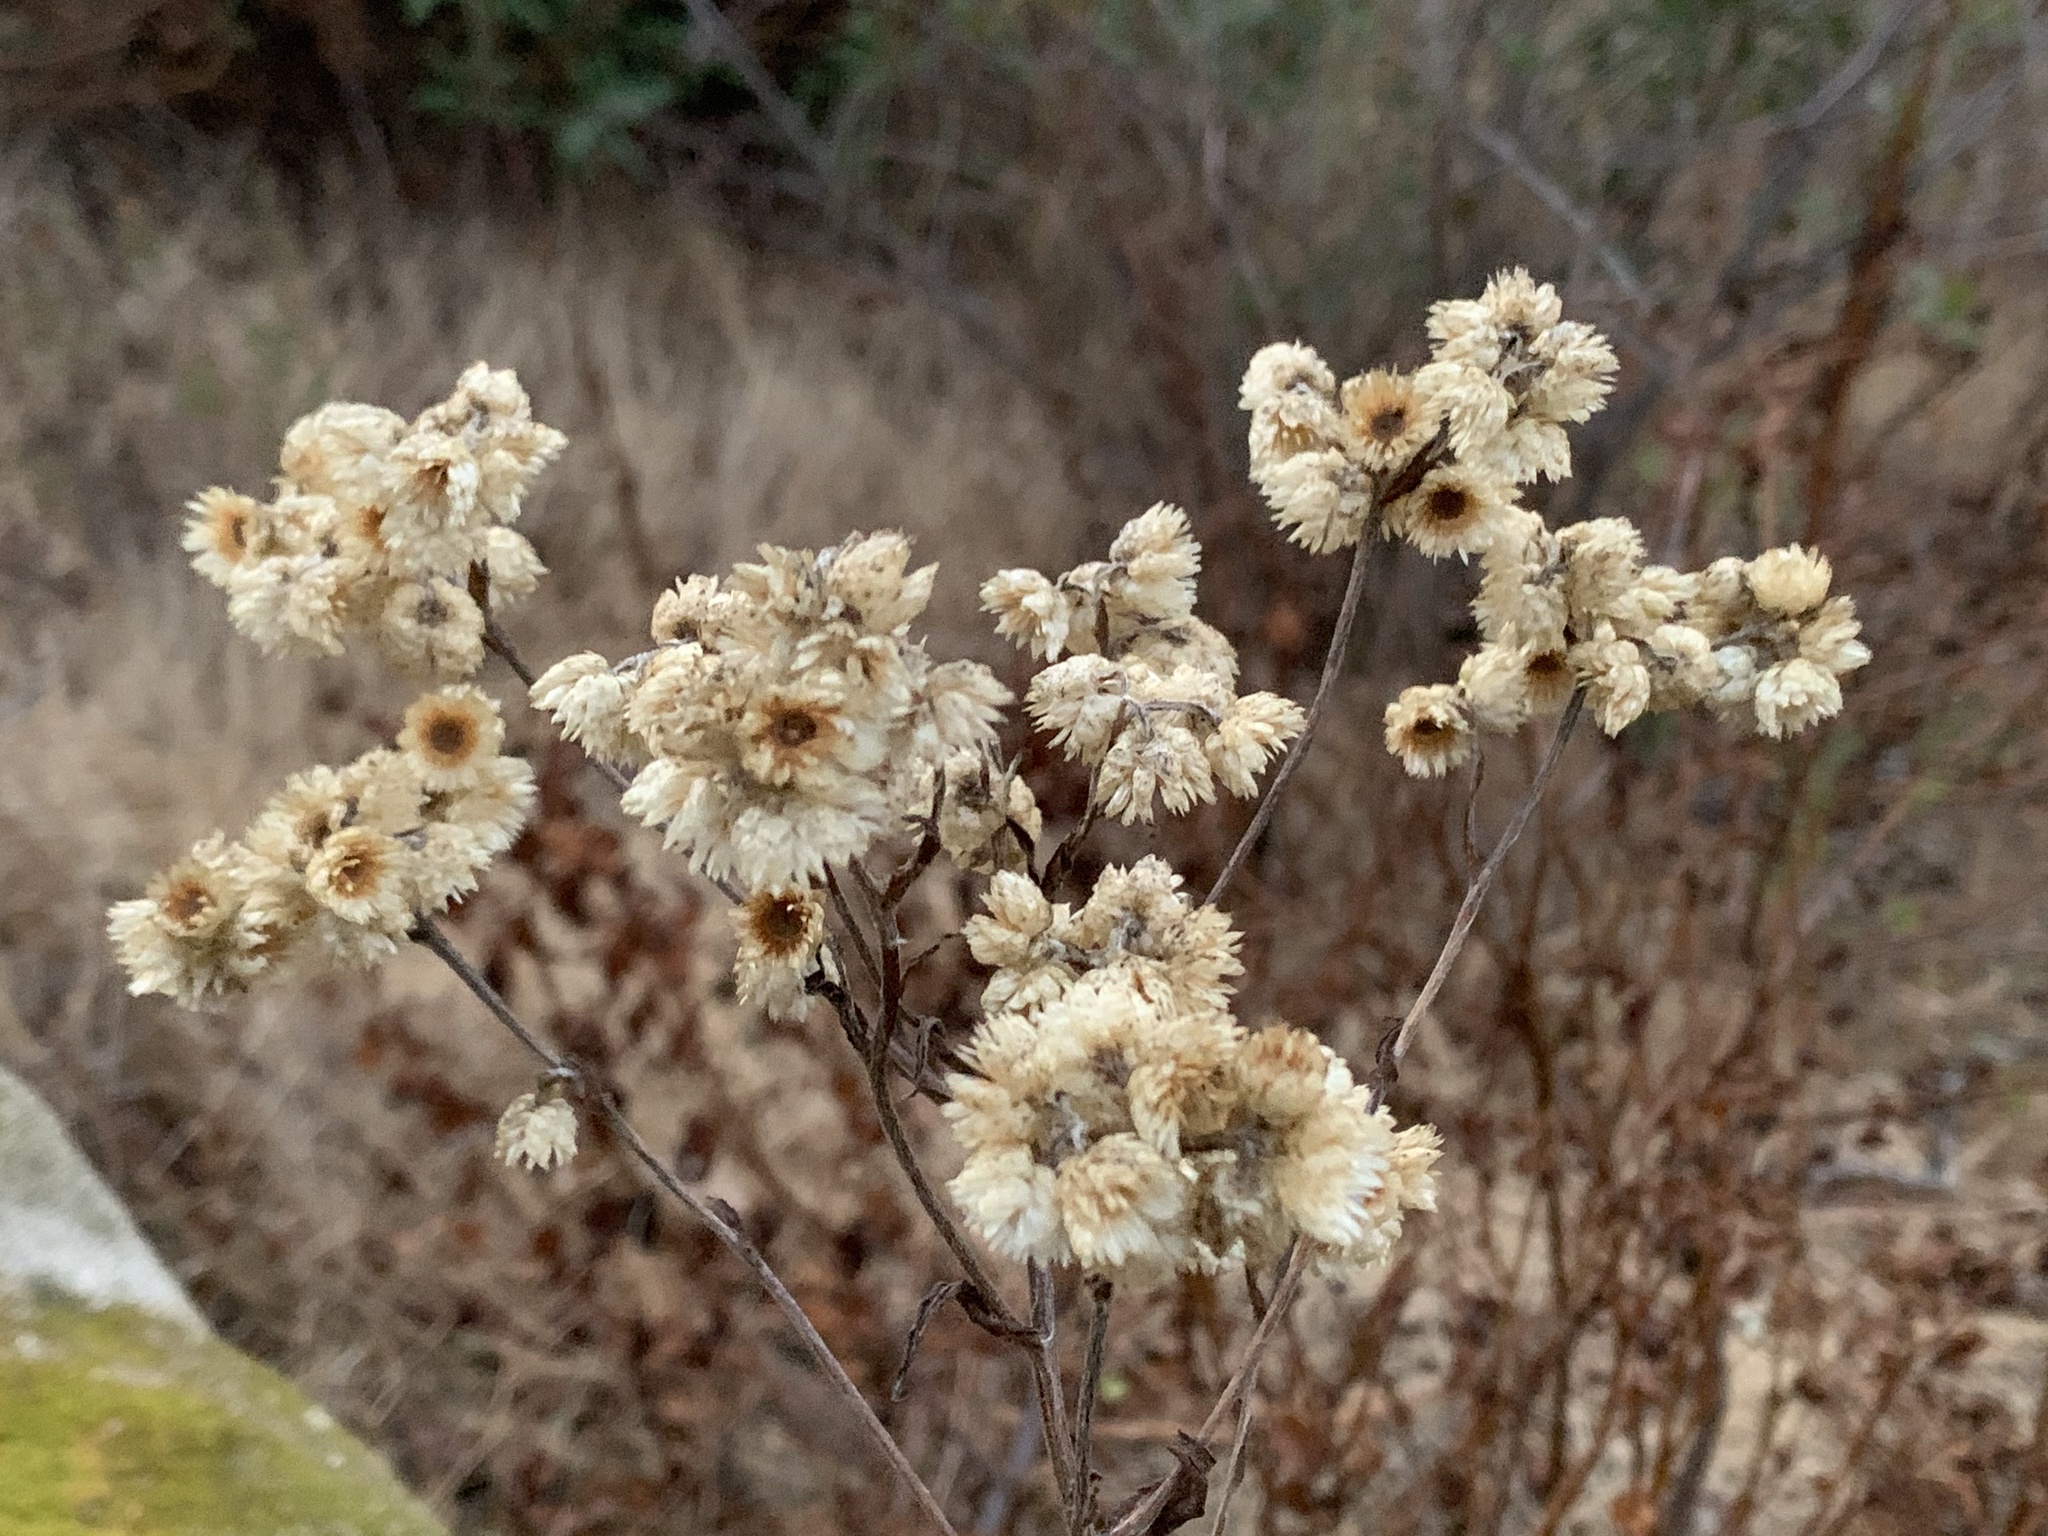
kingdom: Plantae
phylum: Tracheophyta
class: Magnoliopsida
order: Asterales
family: Asteraceae
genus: Pseudognaphalium
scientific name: Pseudognaphalium californicum
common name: California rabbit-tobacco
